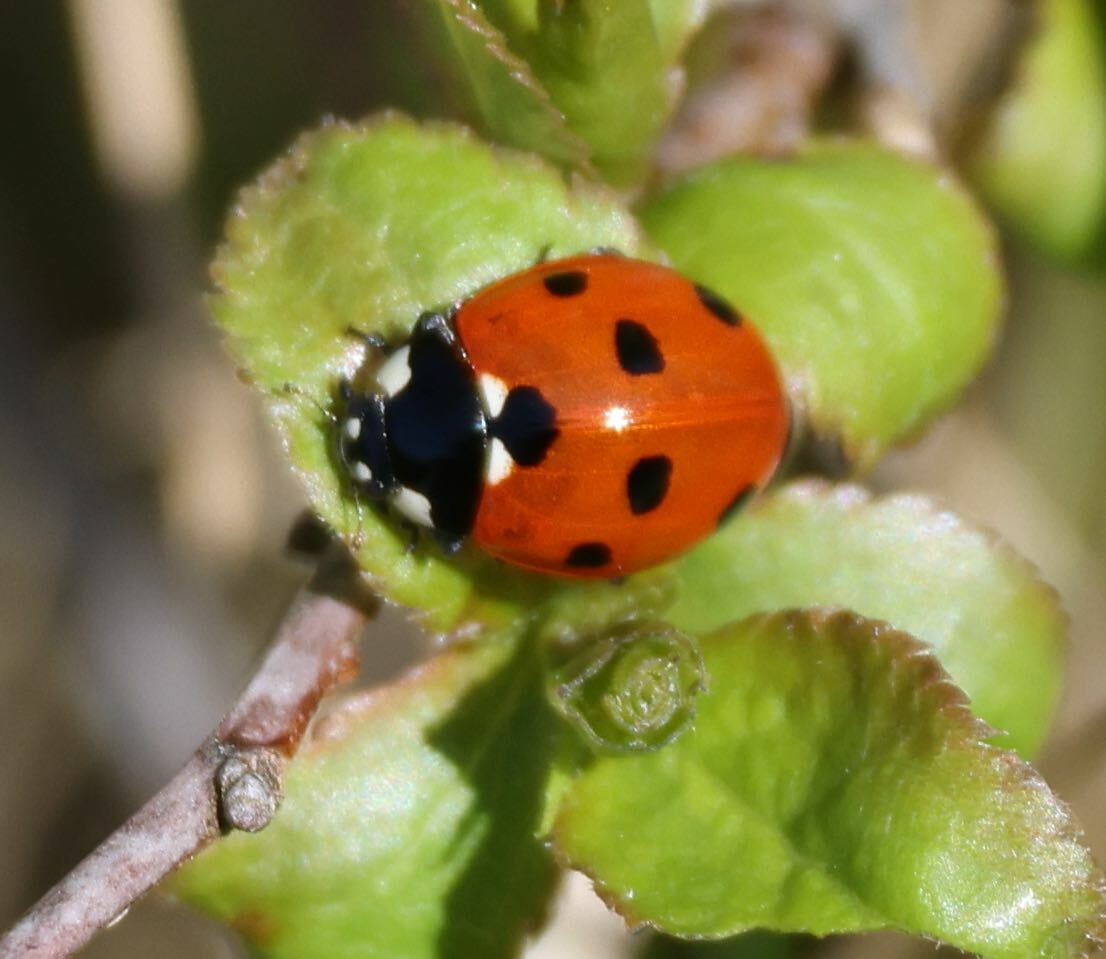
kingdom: Animalia
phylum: Arthropoda
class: Insecta
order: Coleoptera
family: Coccinellidae
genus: Coccinella
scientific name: Coccinella septempunctata
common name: Sevenspotted lady beetle
